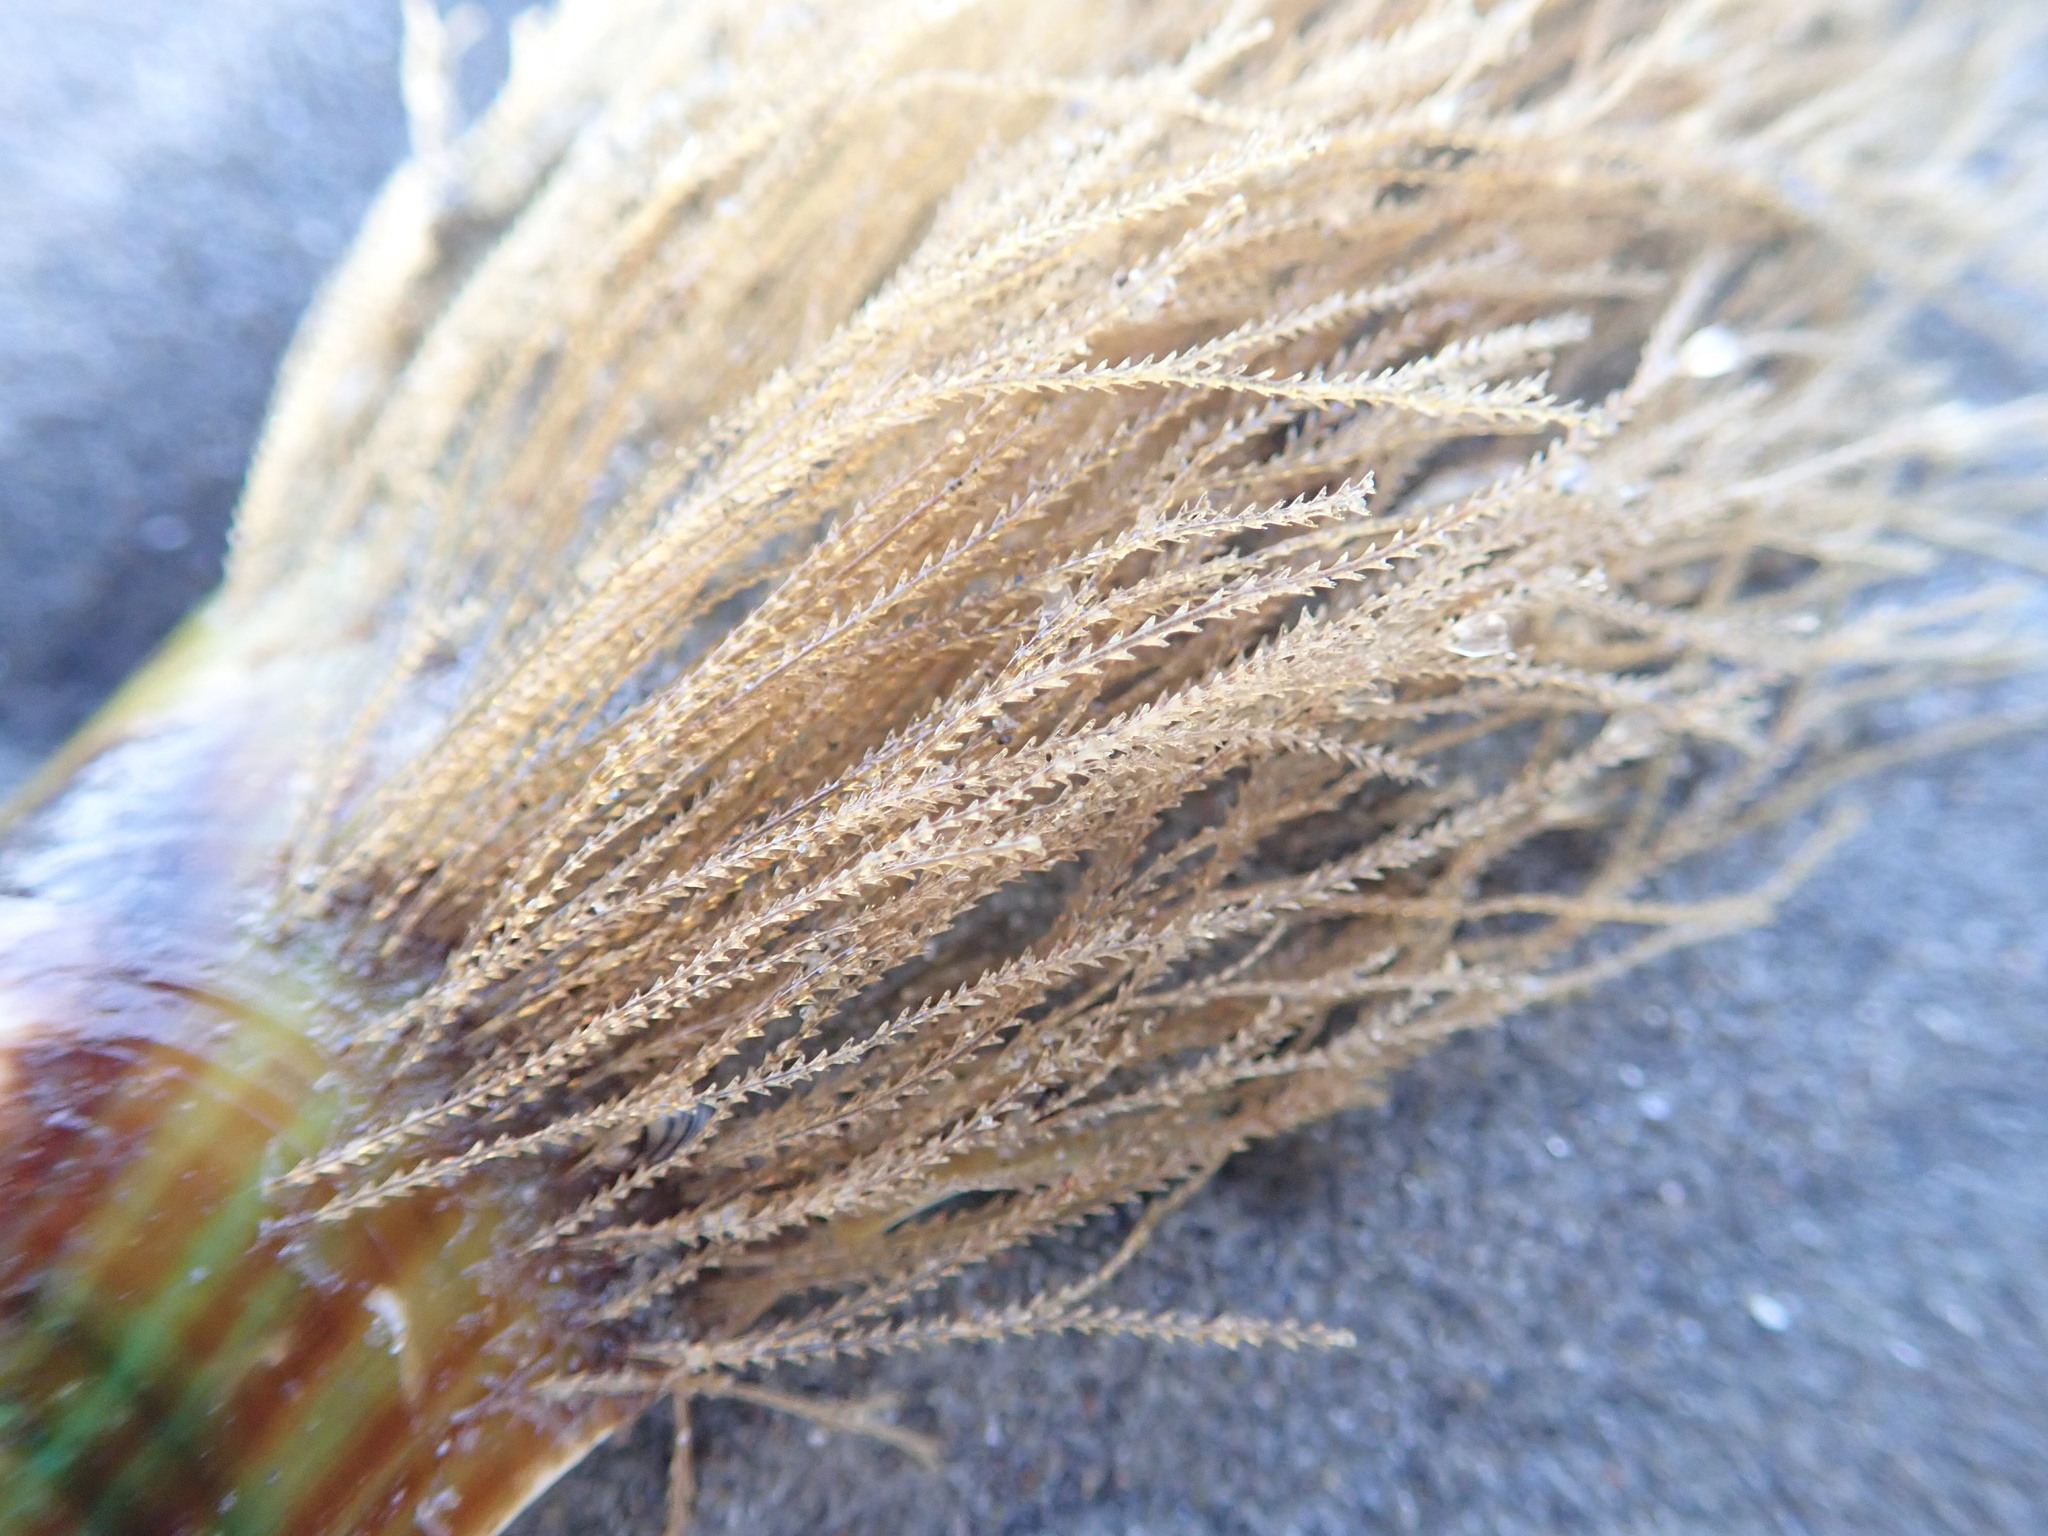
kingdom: Animalia
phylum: Cnidaria
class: Hydrozoa
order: Leptothecata
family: Sertulariidae
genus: Amphisbetia
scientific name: Amphisbetia bispinosa
